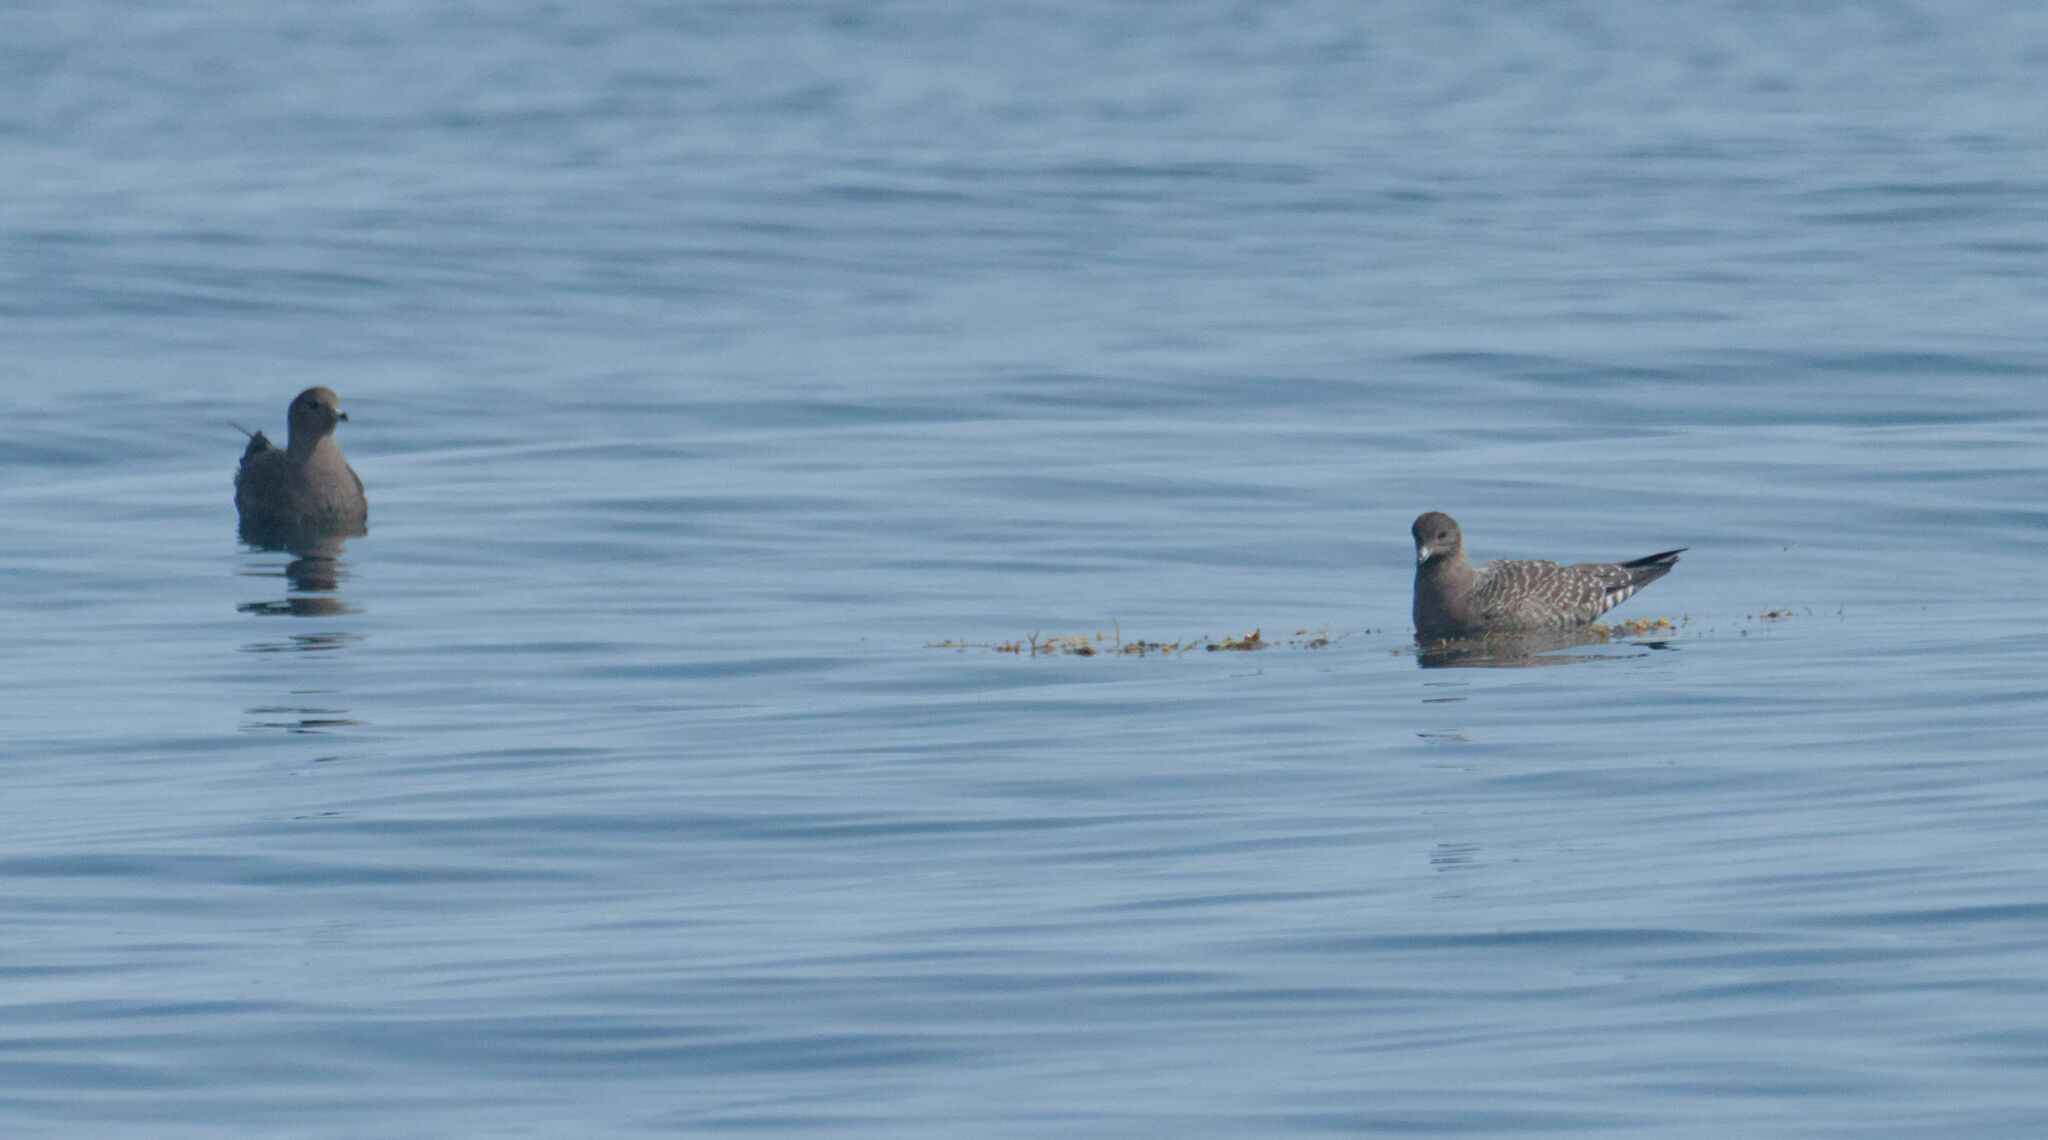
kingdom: Animalia
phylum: Chordata
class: Aves
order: Charadriiformes
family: Stercorariidae
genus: Stercorarius
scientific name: Stercorarius longicaudus
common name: Long-tailed jaeger
